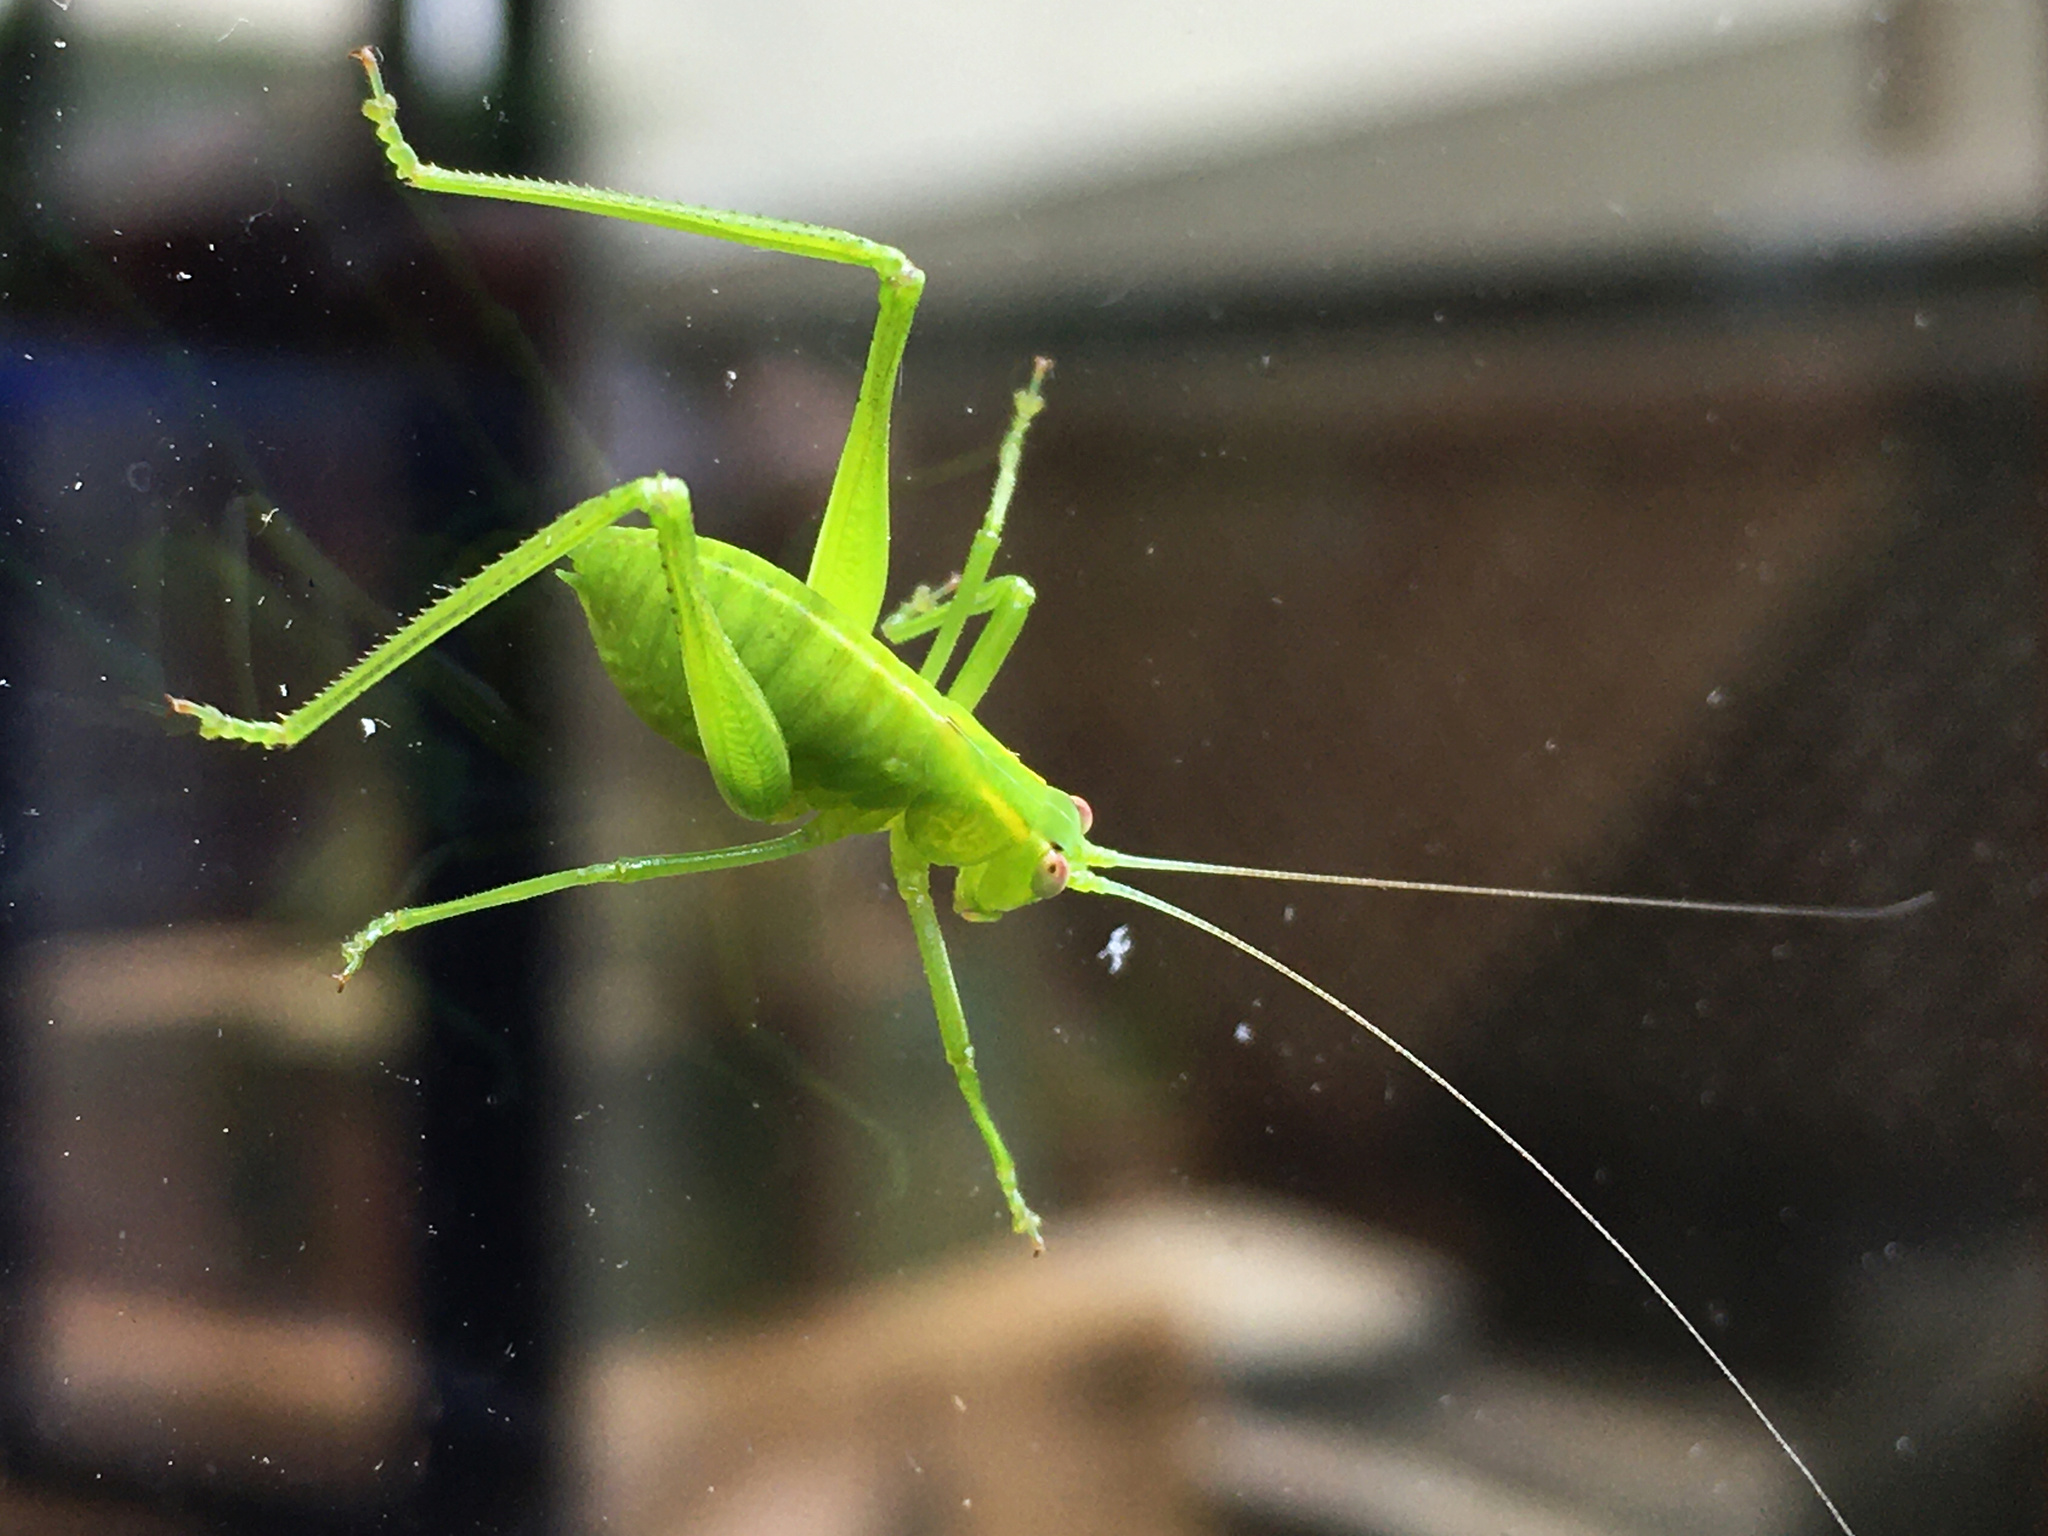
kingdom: Animalia
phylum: Arthropoda
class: Insecta
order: Orthoptera
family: Tettigoniidae
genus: Caedicia
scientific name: Caedicia simplex
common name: Common garden katydid
